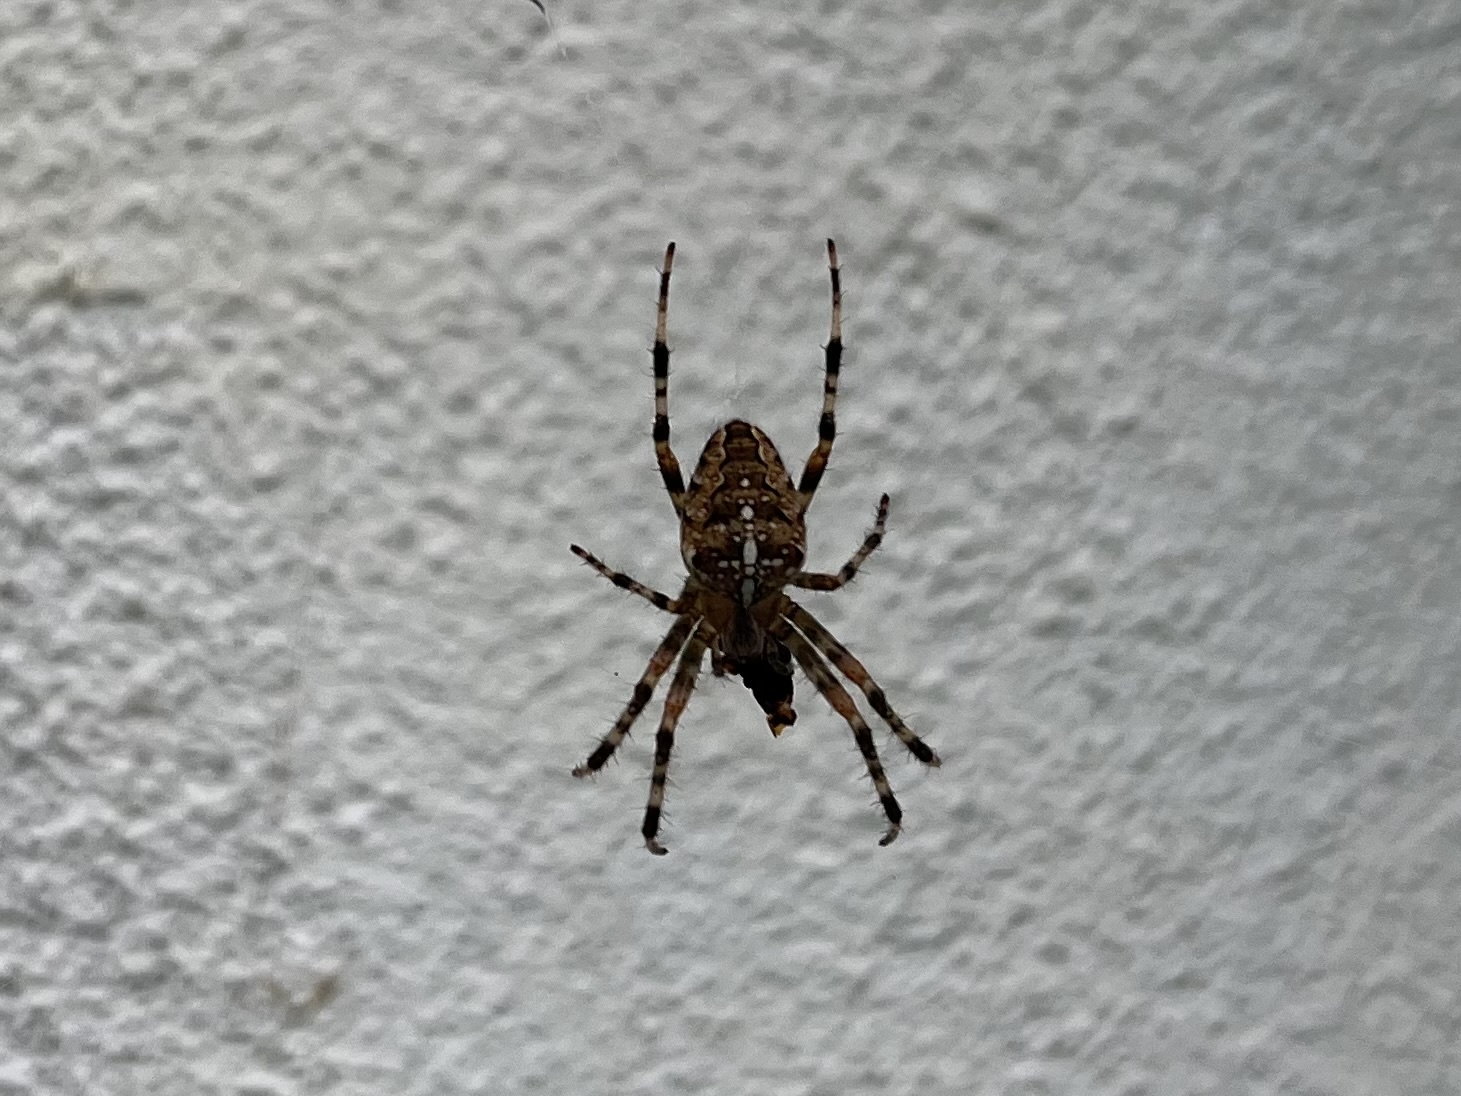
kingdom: Animalia
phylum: Arthropoda
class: Arachnida
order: Araneae
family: Araneidae
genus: Araneus
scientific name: Araneus diadematus
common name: Cross orbweaver
